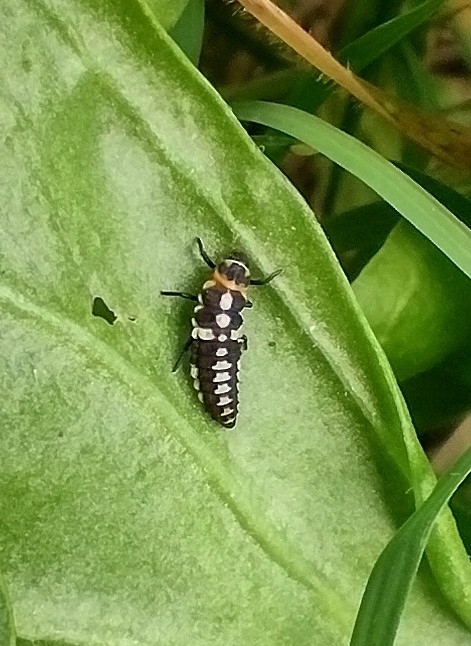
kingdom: Animalia
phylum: Arthropoda
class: Insecta
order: Coleoptera
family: Coccinellidae
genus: Eriopis
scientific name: Eriopis connexa
